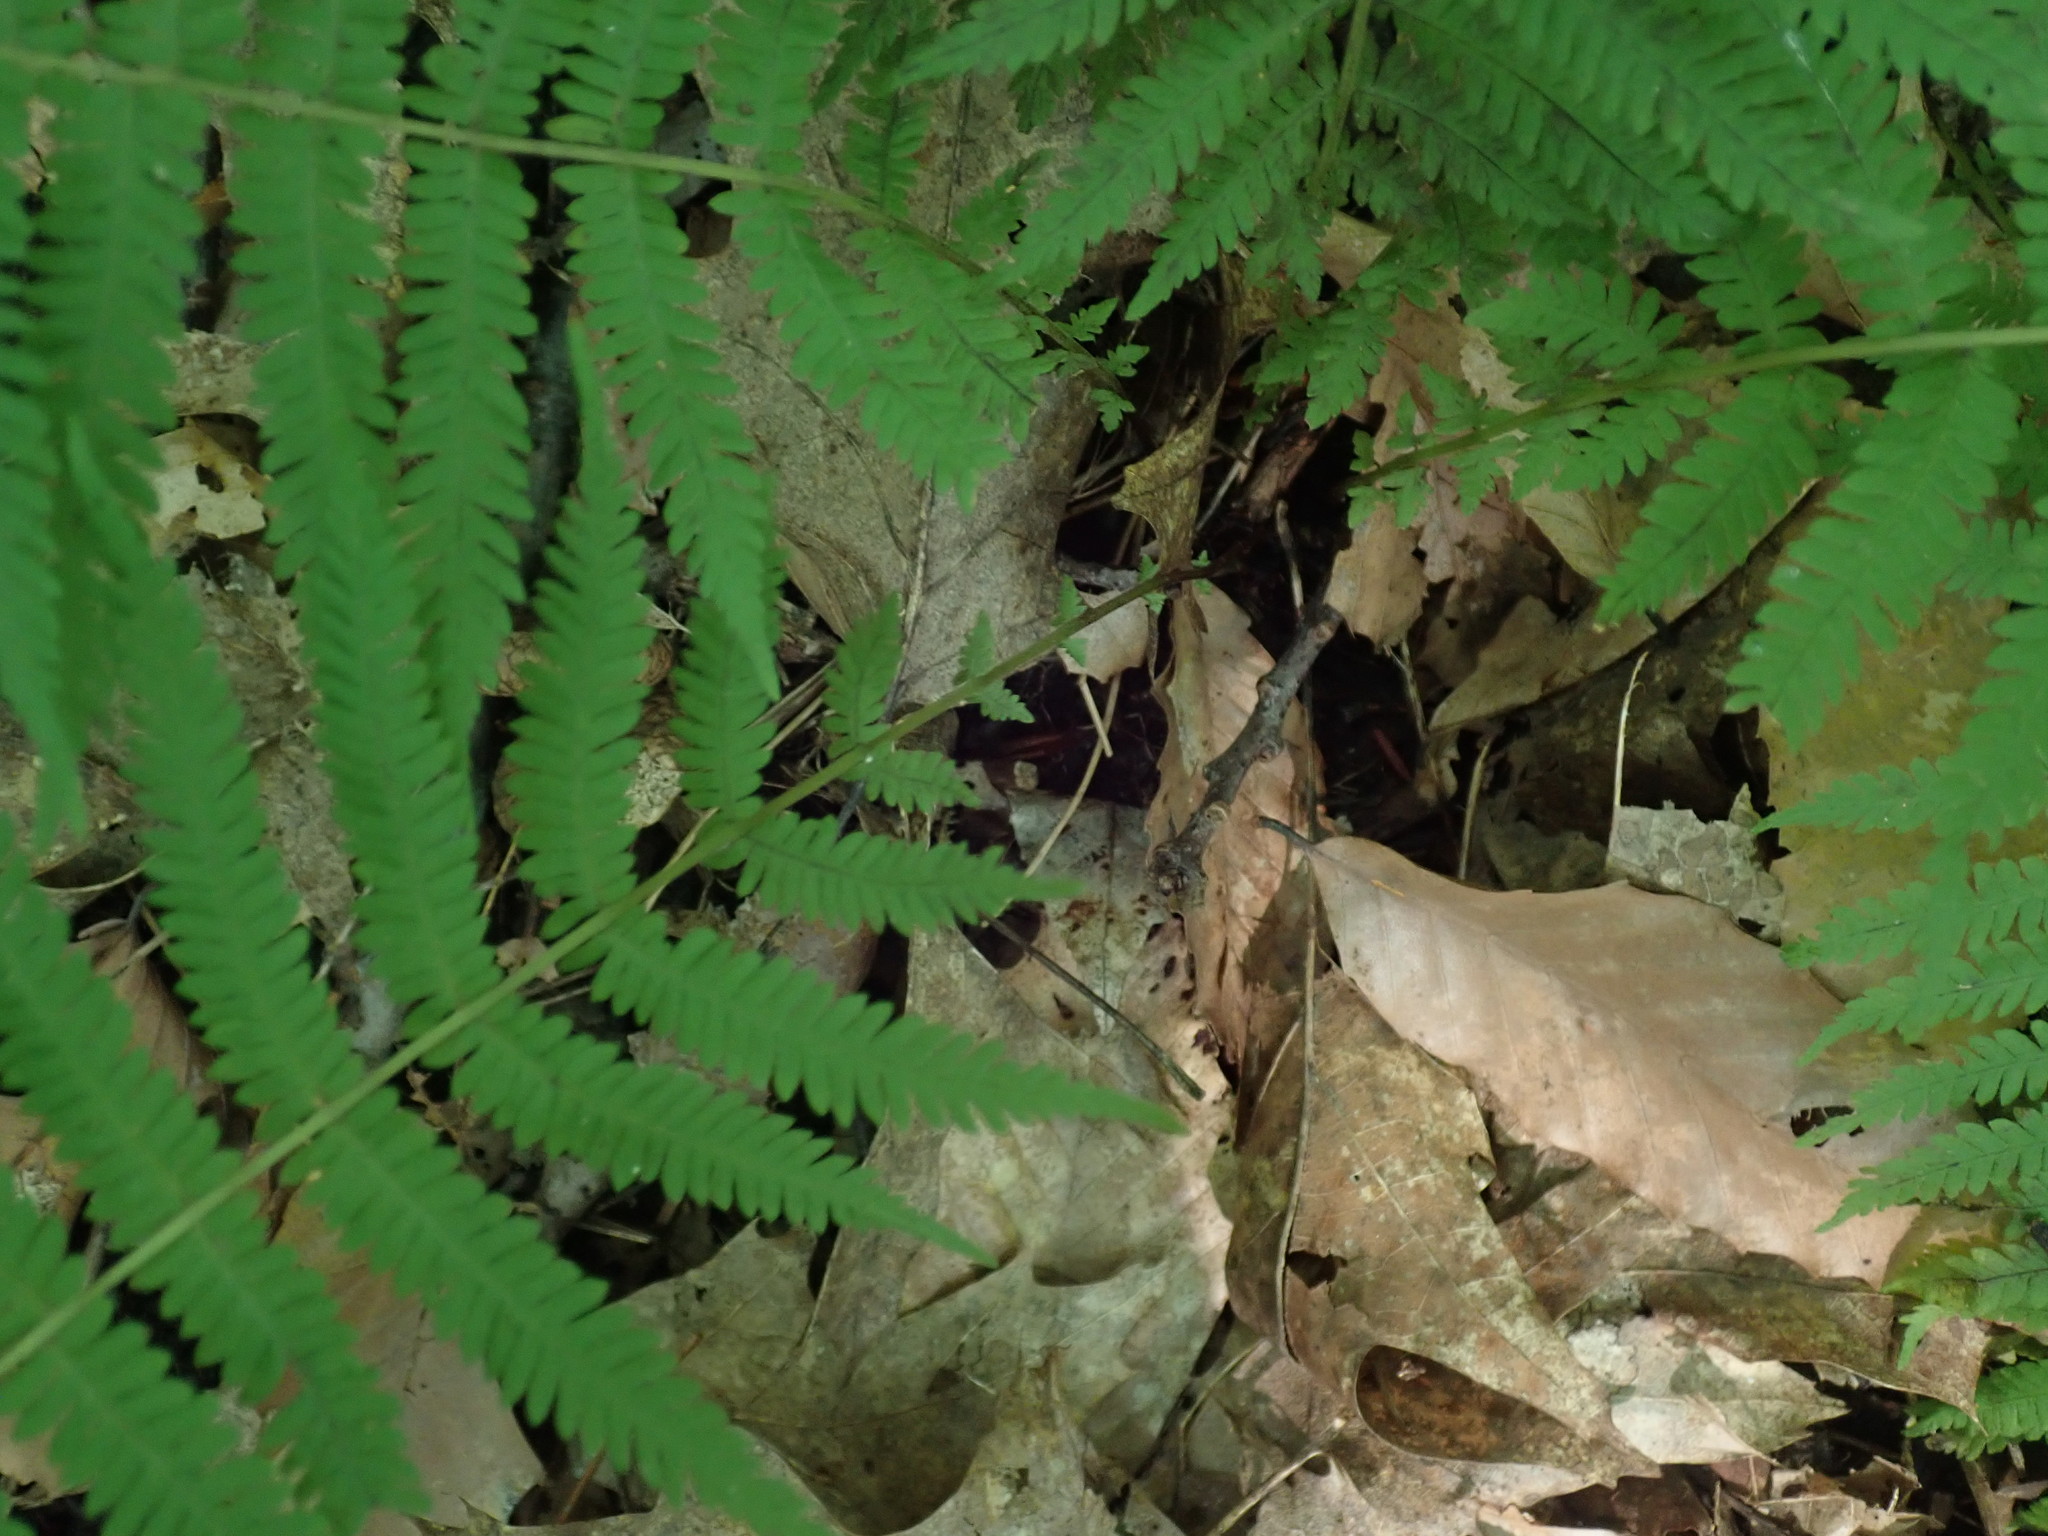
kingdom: Plantae
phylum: Tracheophyta
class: Polypodiopsida
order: Polypodiales
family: Thelypteridaceae
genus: Amauropelta
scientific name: Amauropelta noveboracensis
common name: New york fern
